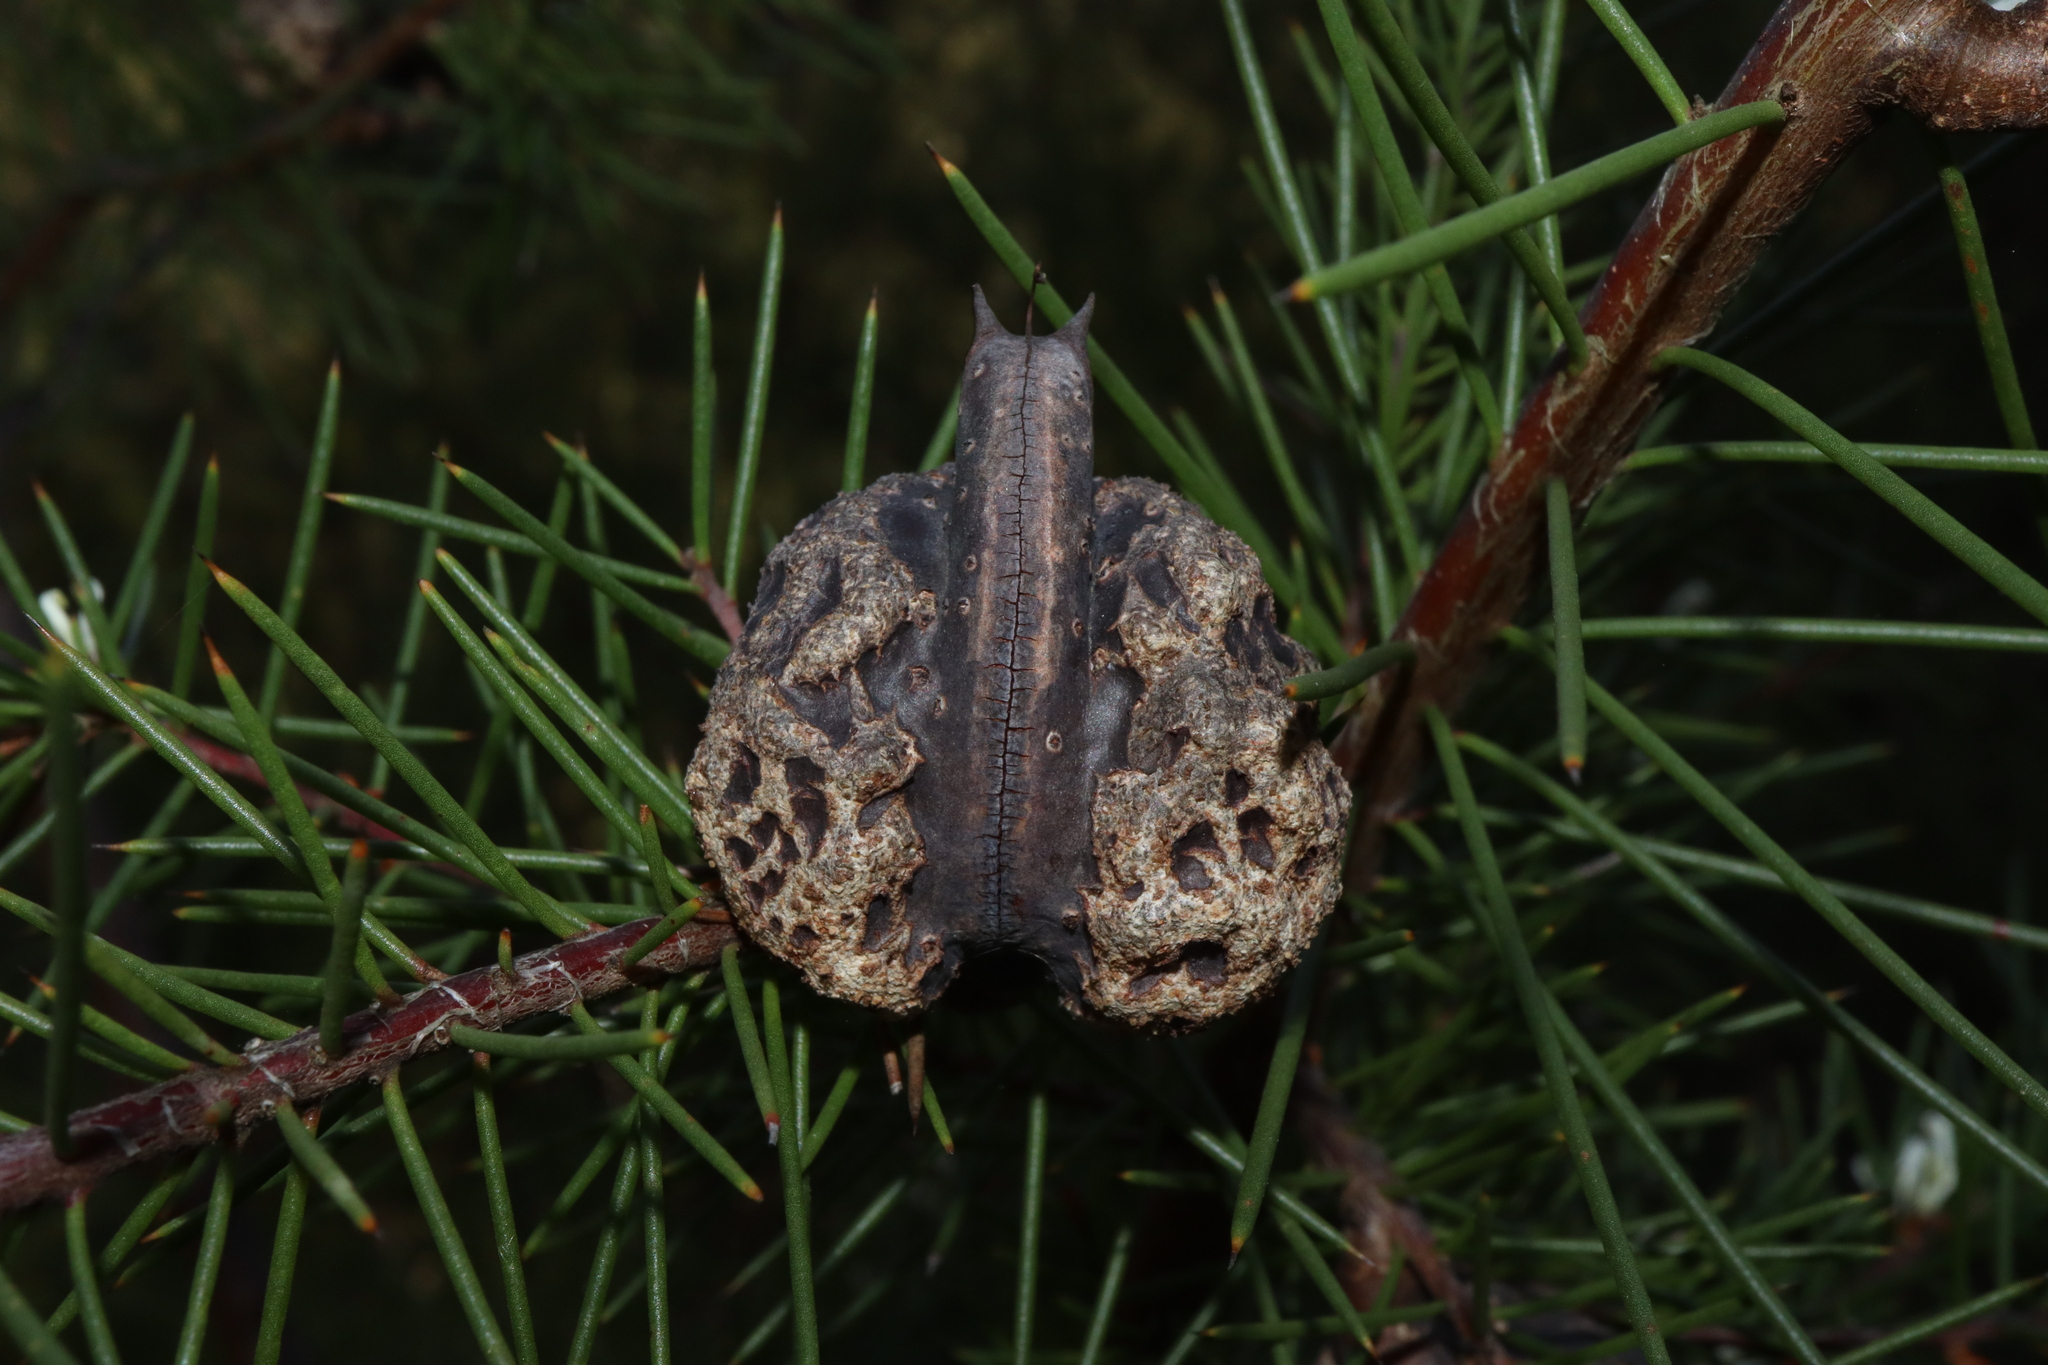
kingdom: Plantae
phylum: Tracheophyta
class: Magnoliopsida
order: Proteales
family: Proteaceae
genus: Hakea
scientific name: Hakea sericea
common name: Needle bush
